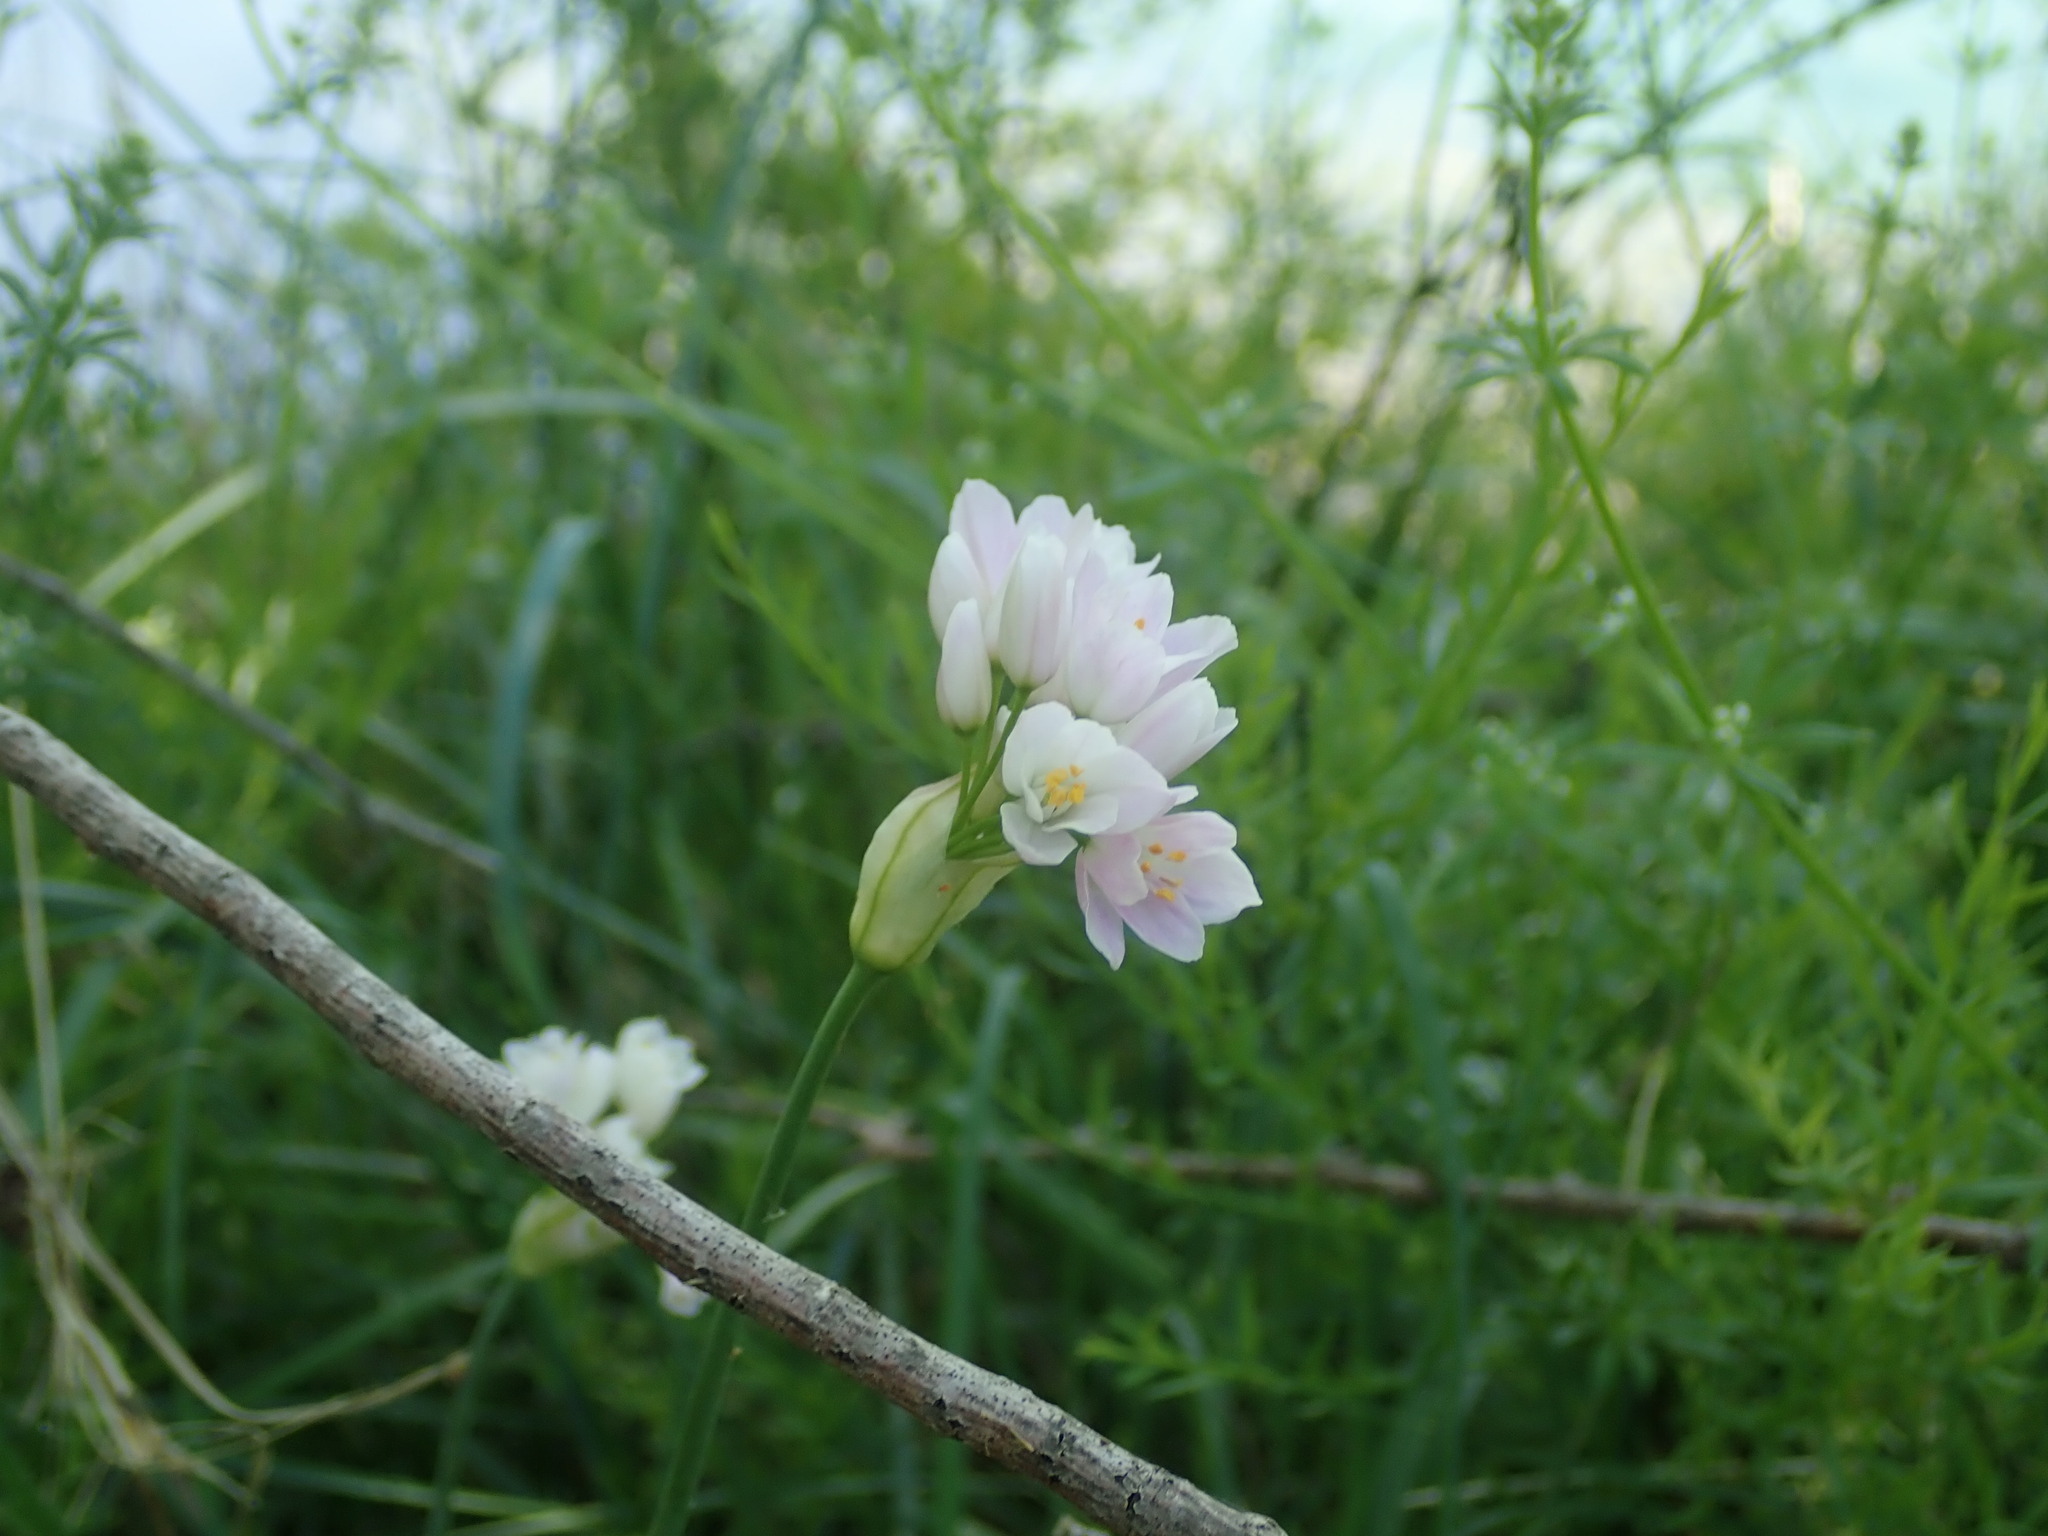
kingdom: Plantae
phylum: Tracheophyta
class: Liliopsida
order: Asparagales
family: Amaryllidaceae
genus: Allium
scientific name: Allium roseum
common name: Rosy garlic
